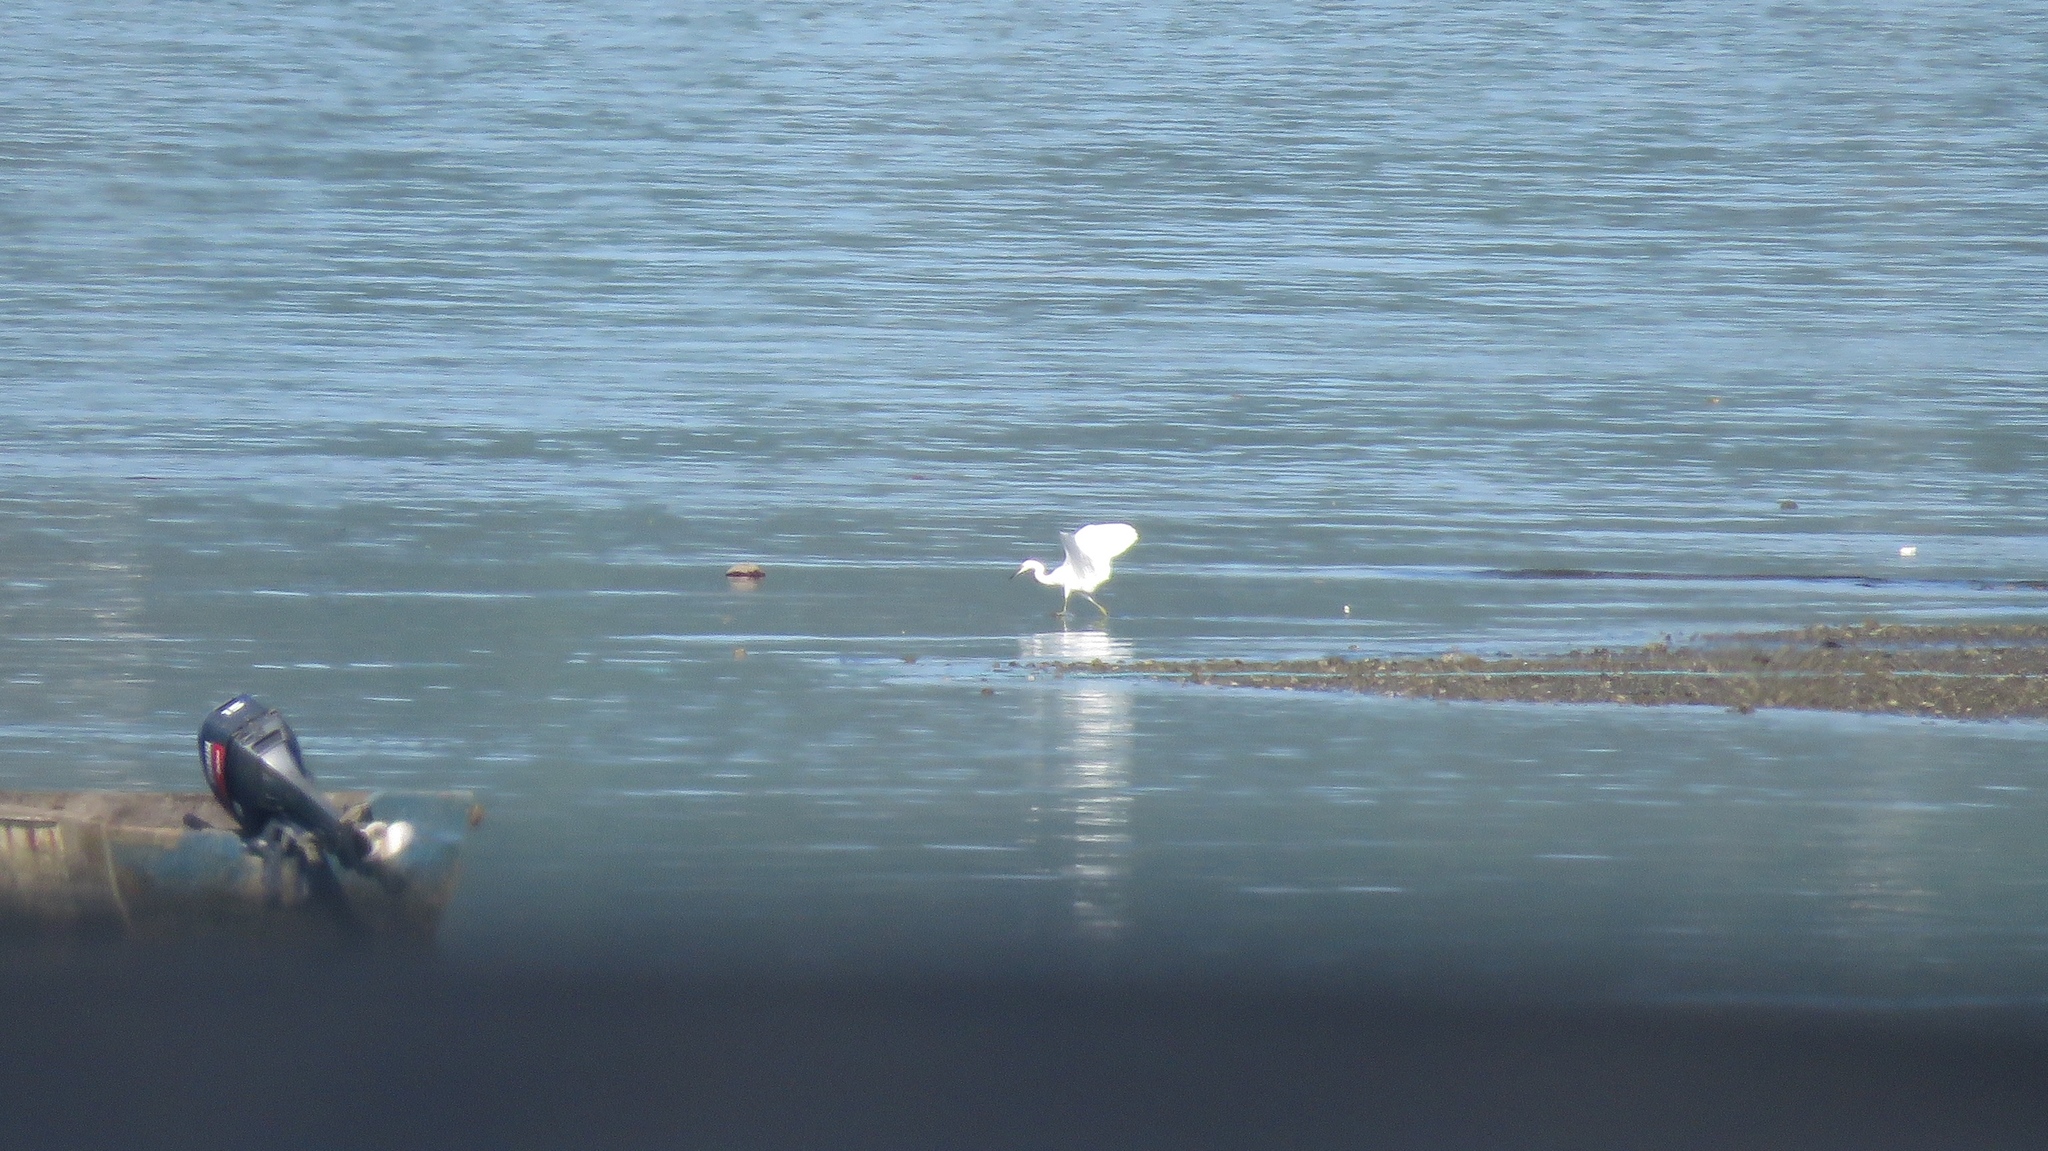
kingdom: Animalia
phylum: Chordata
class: Aves
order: Pelecaniformes
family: Ardeidae
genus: Egretta
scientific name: Egretta thula
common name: Snowy egret
